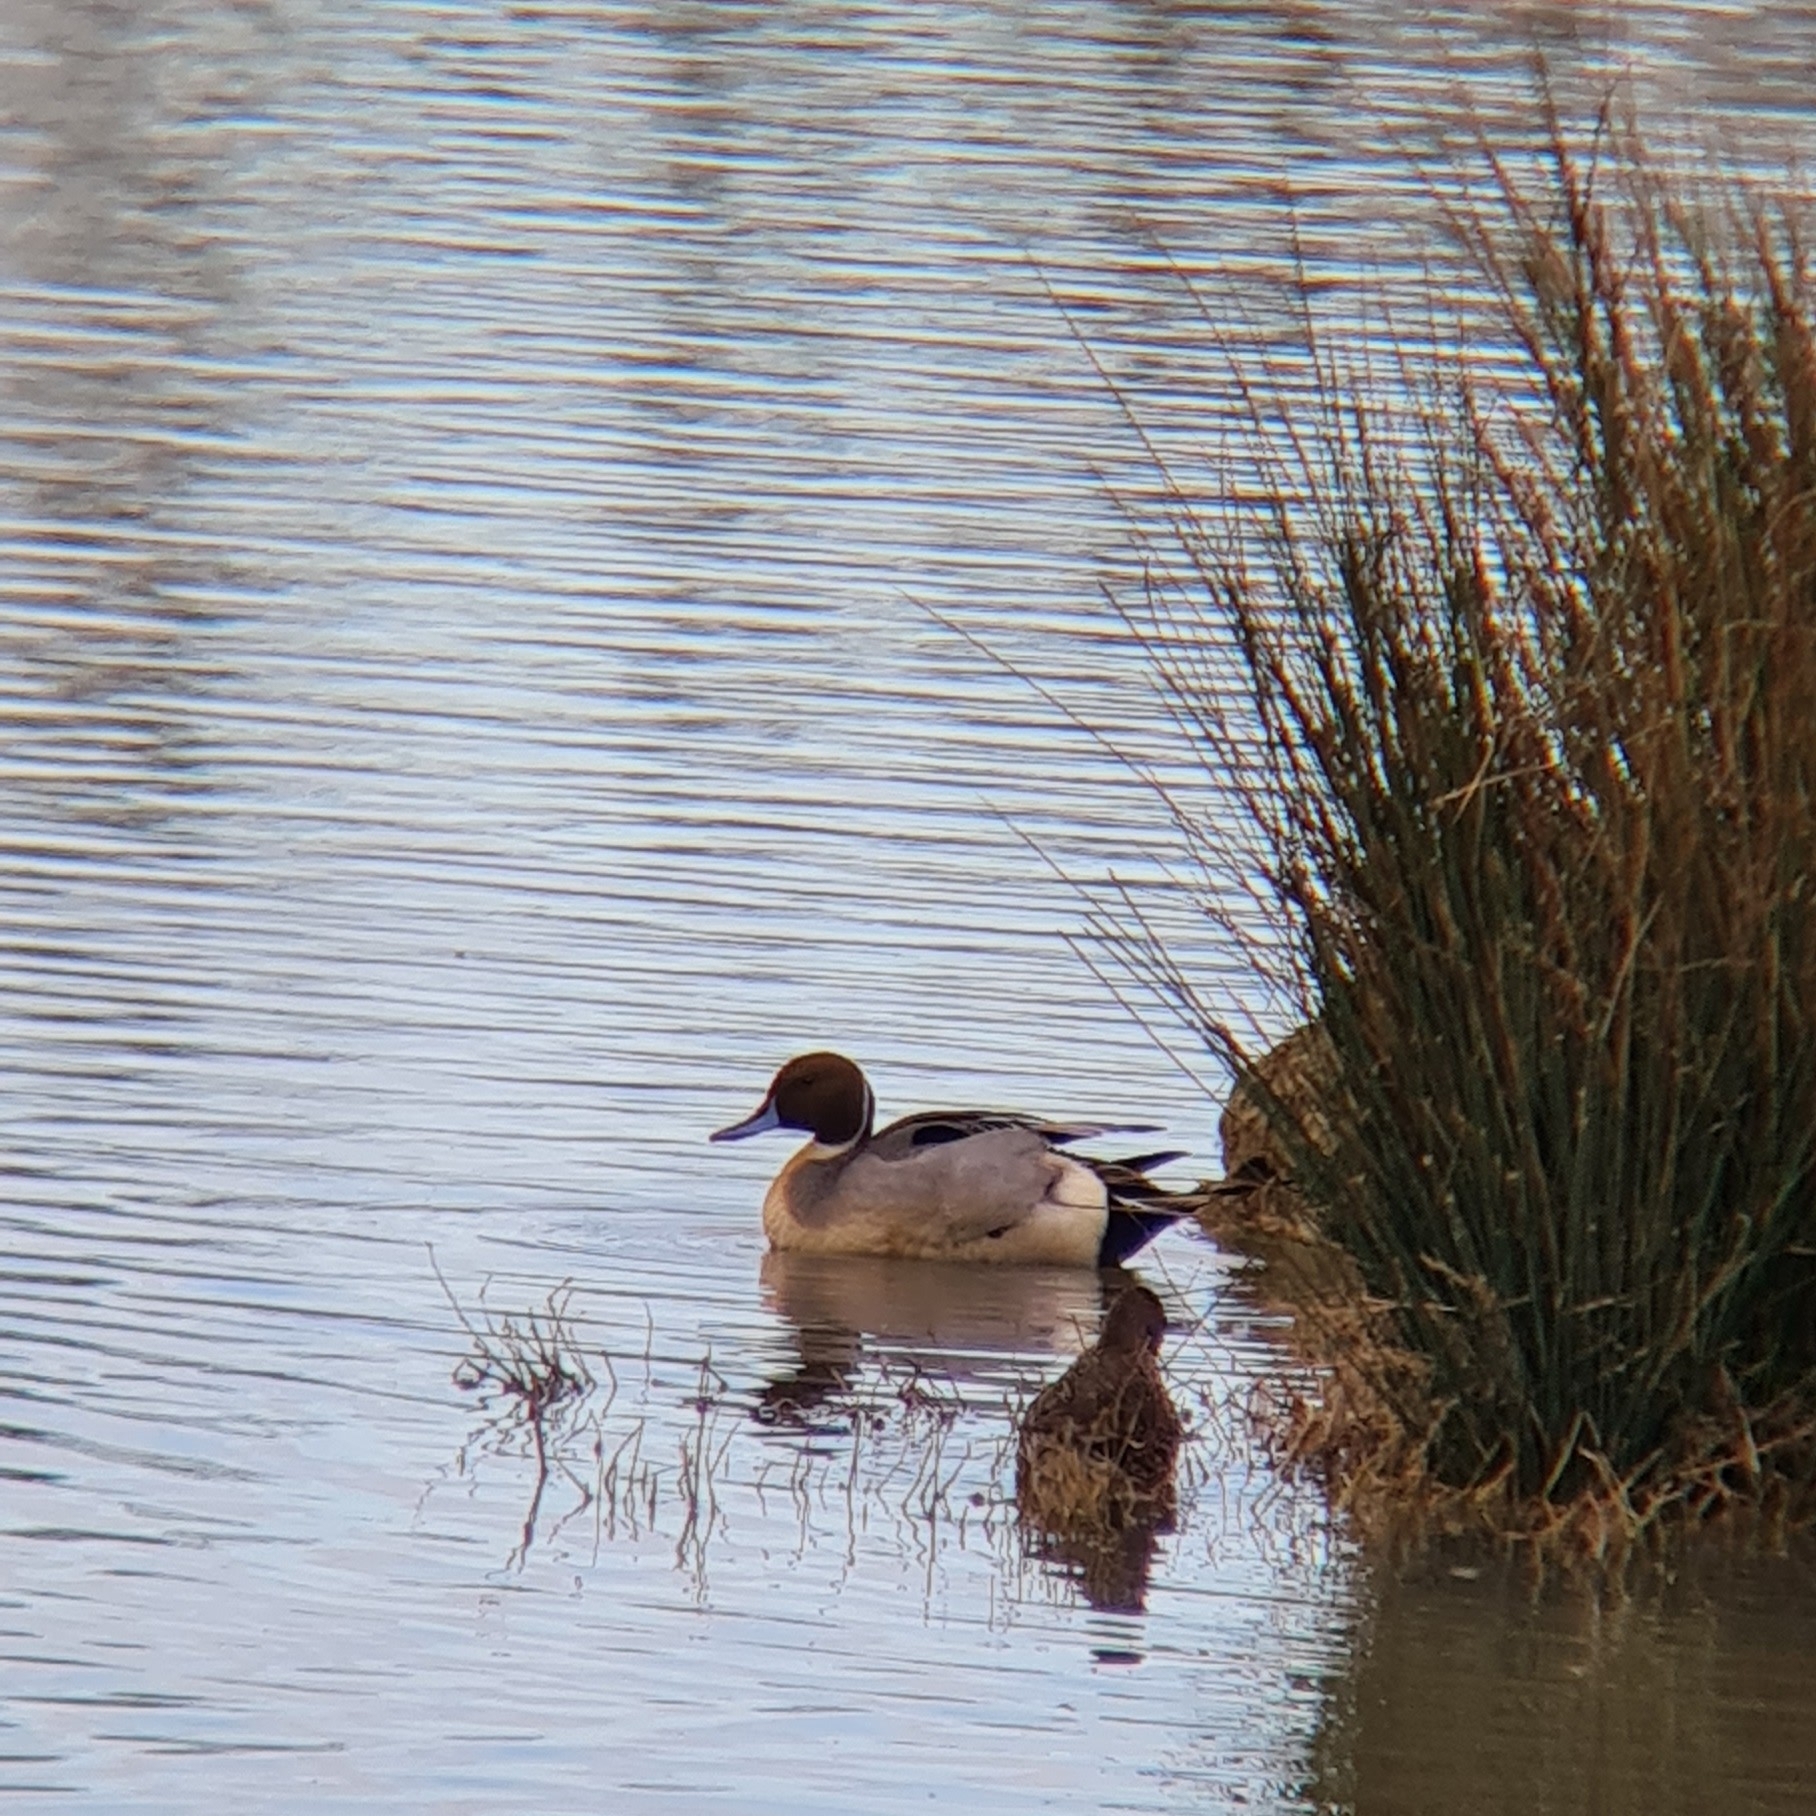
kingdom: Animalia
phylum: Chordata
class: Aves
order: Anseriformes
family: Anatidae
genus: Anas
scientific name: Anas acuta
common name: Northern pintail
